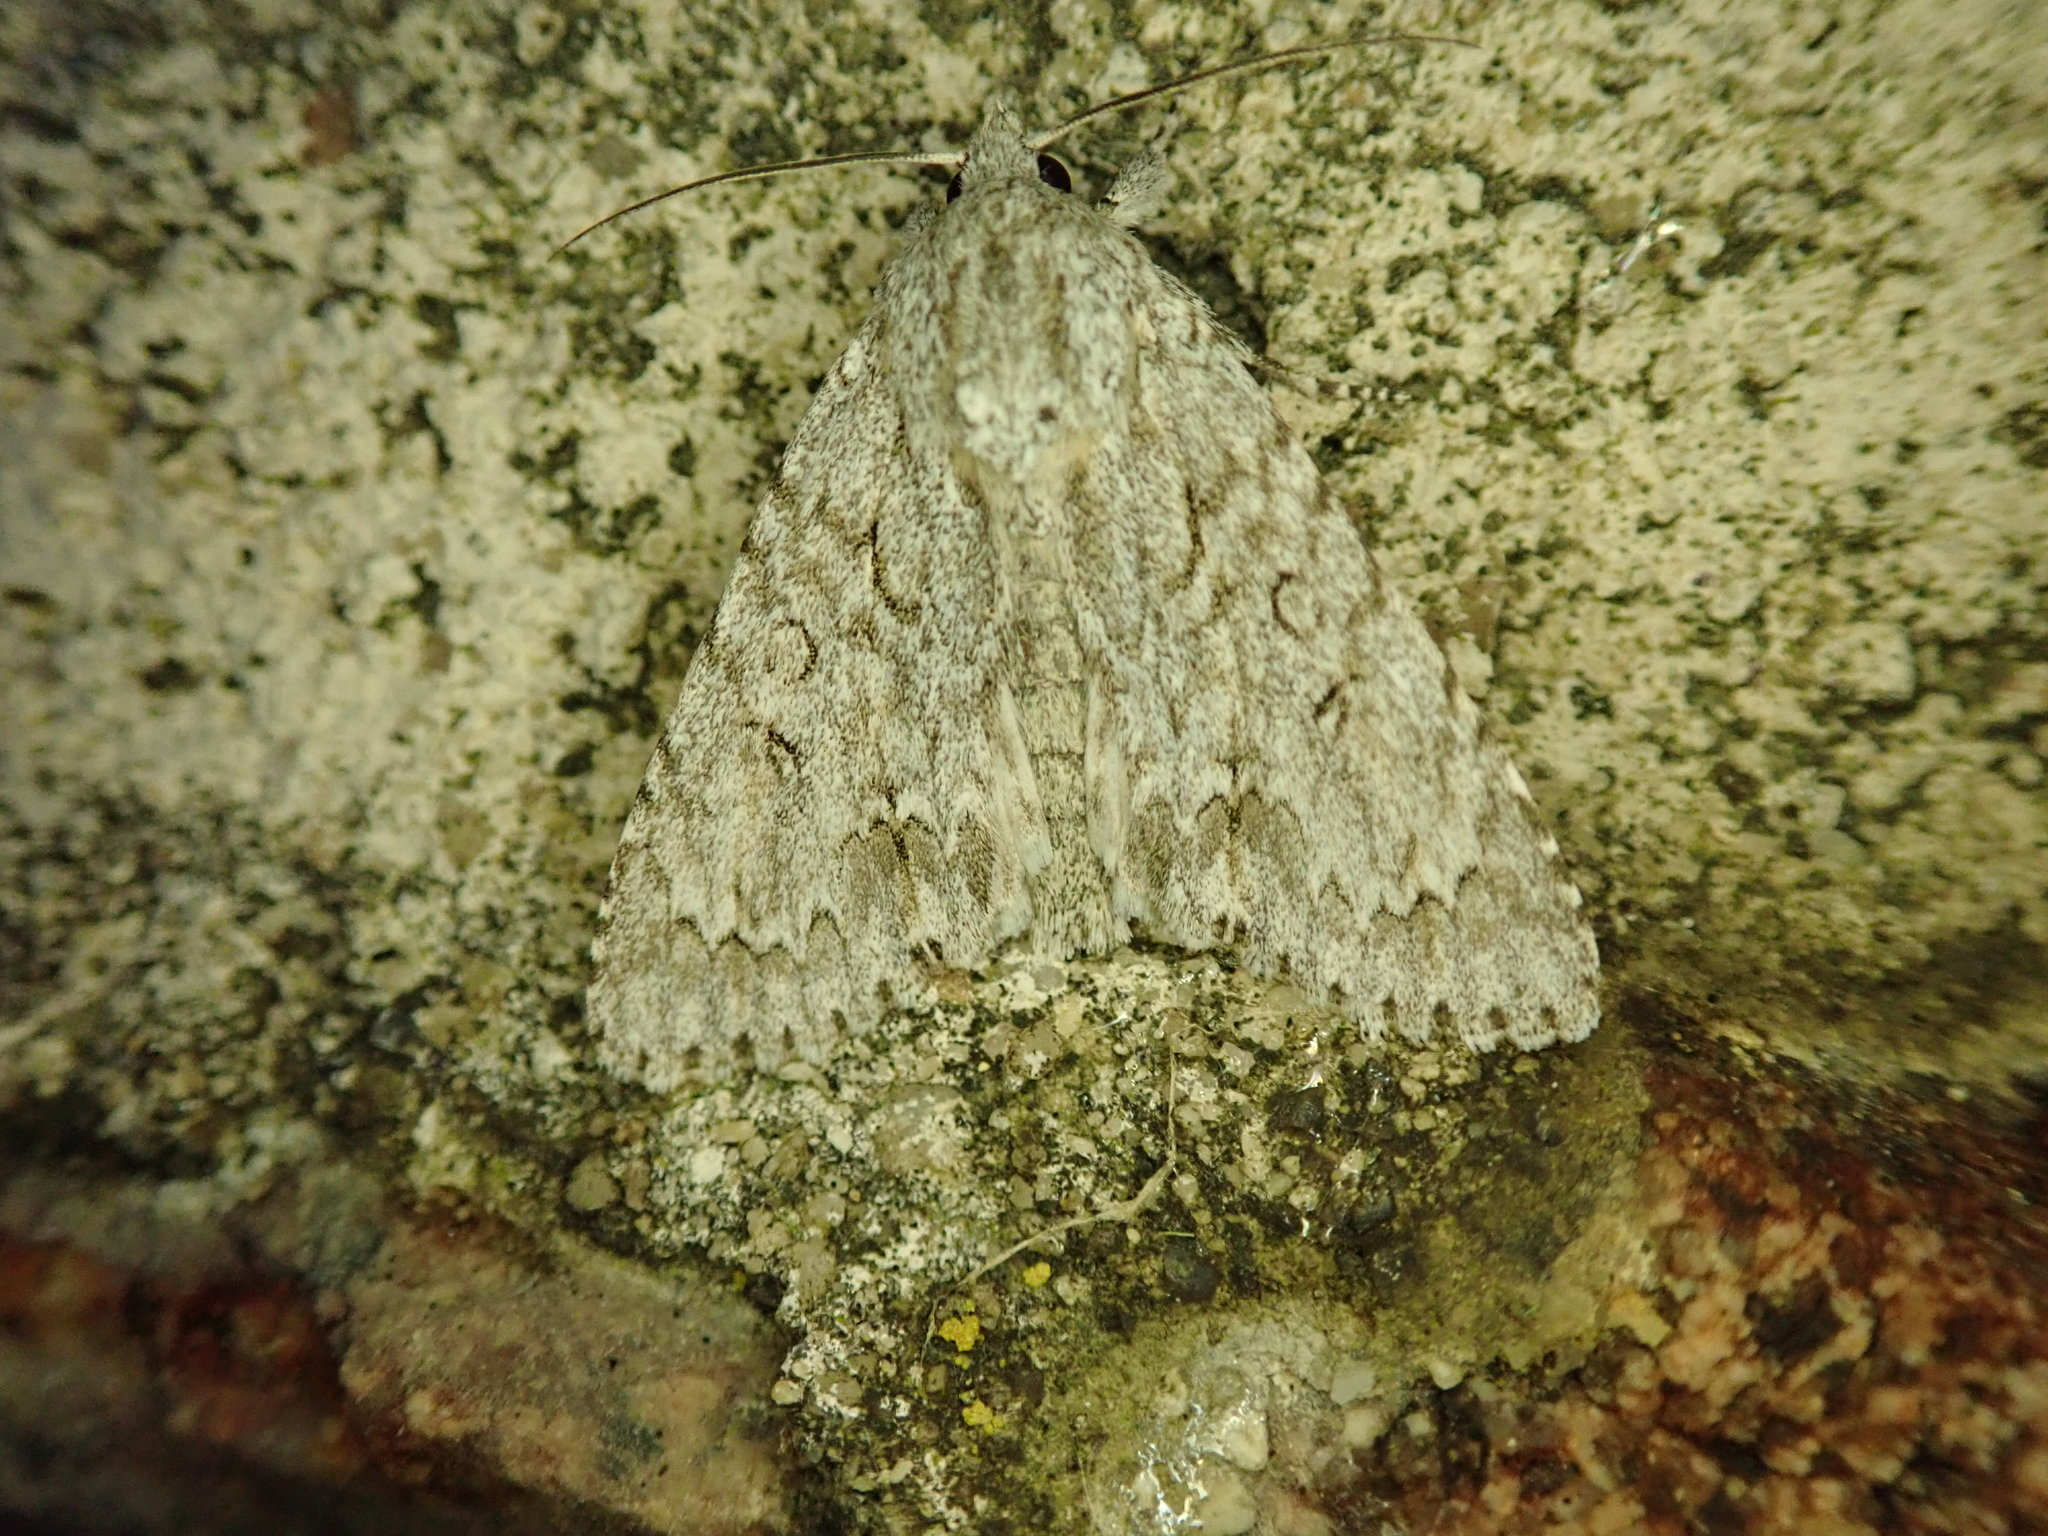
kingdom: Animalia
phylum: Arthropoda
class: Insecta
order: Lepidoptera
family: Noctuidae
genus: Acronicta
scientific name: Acronicta aceris
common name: Sycamore
